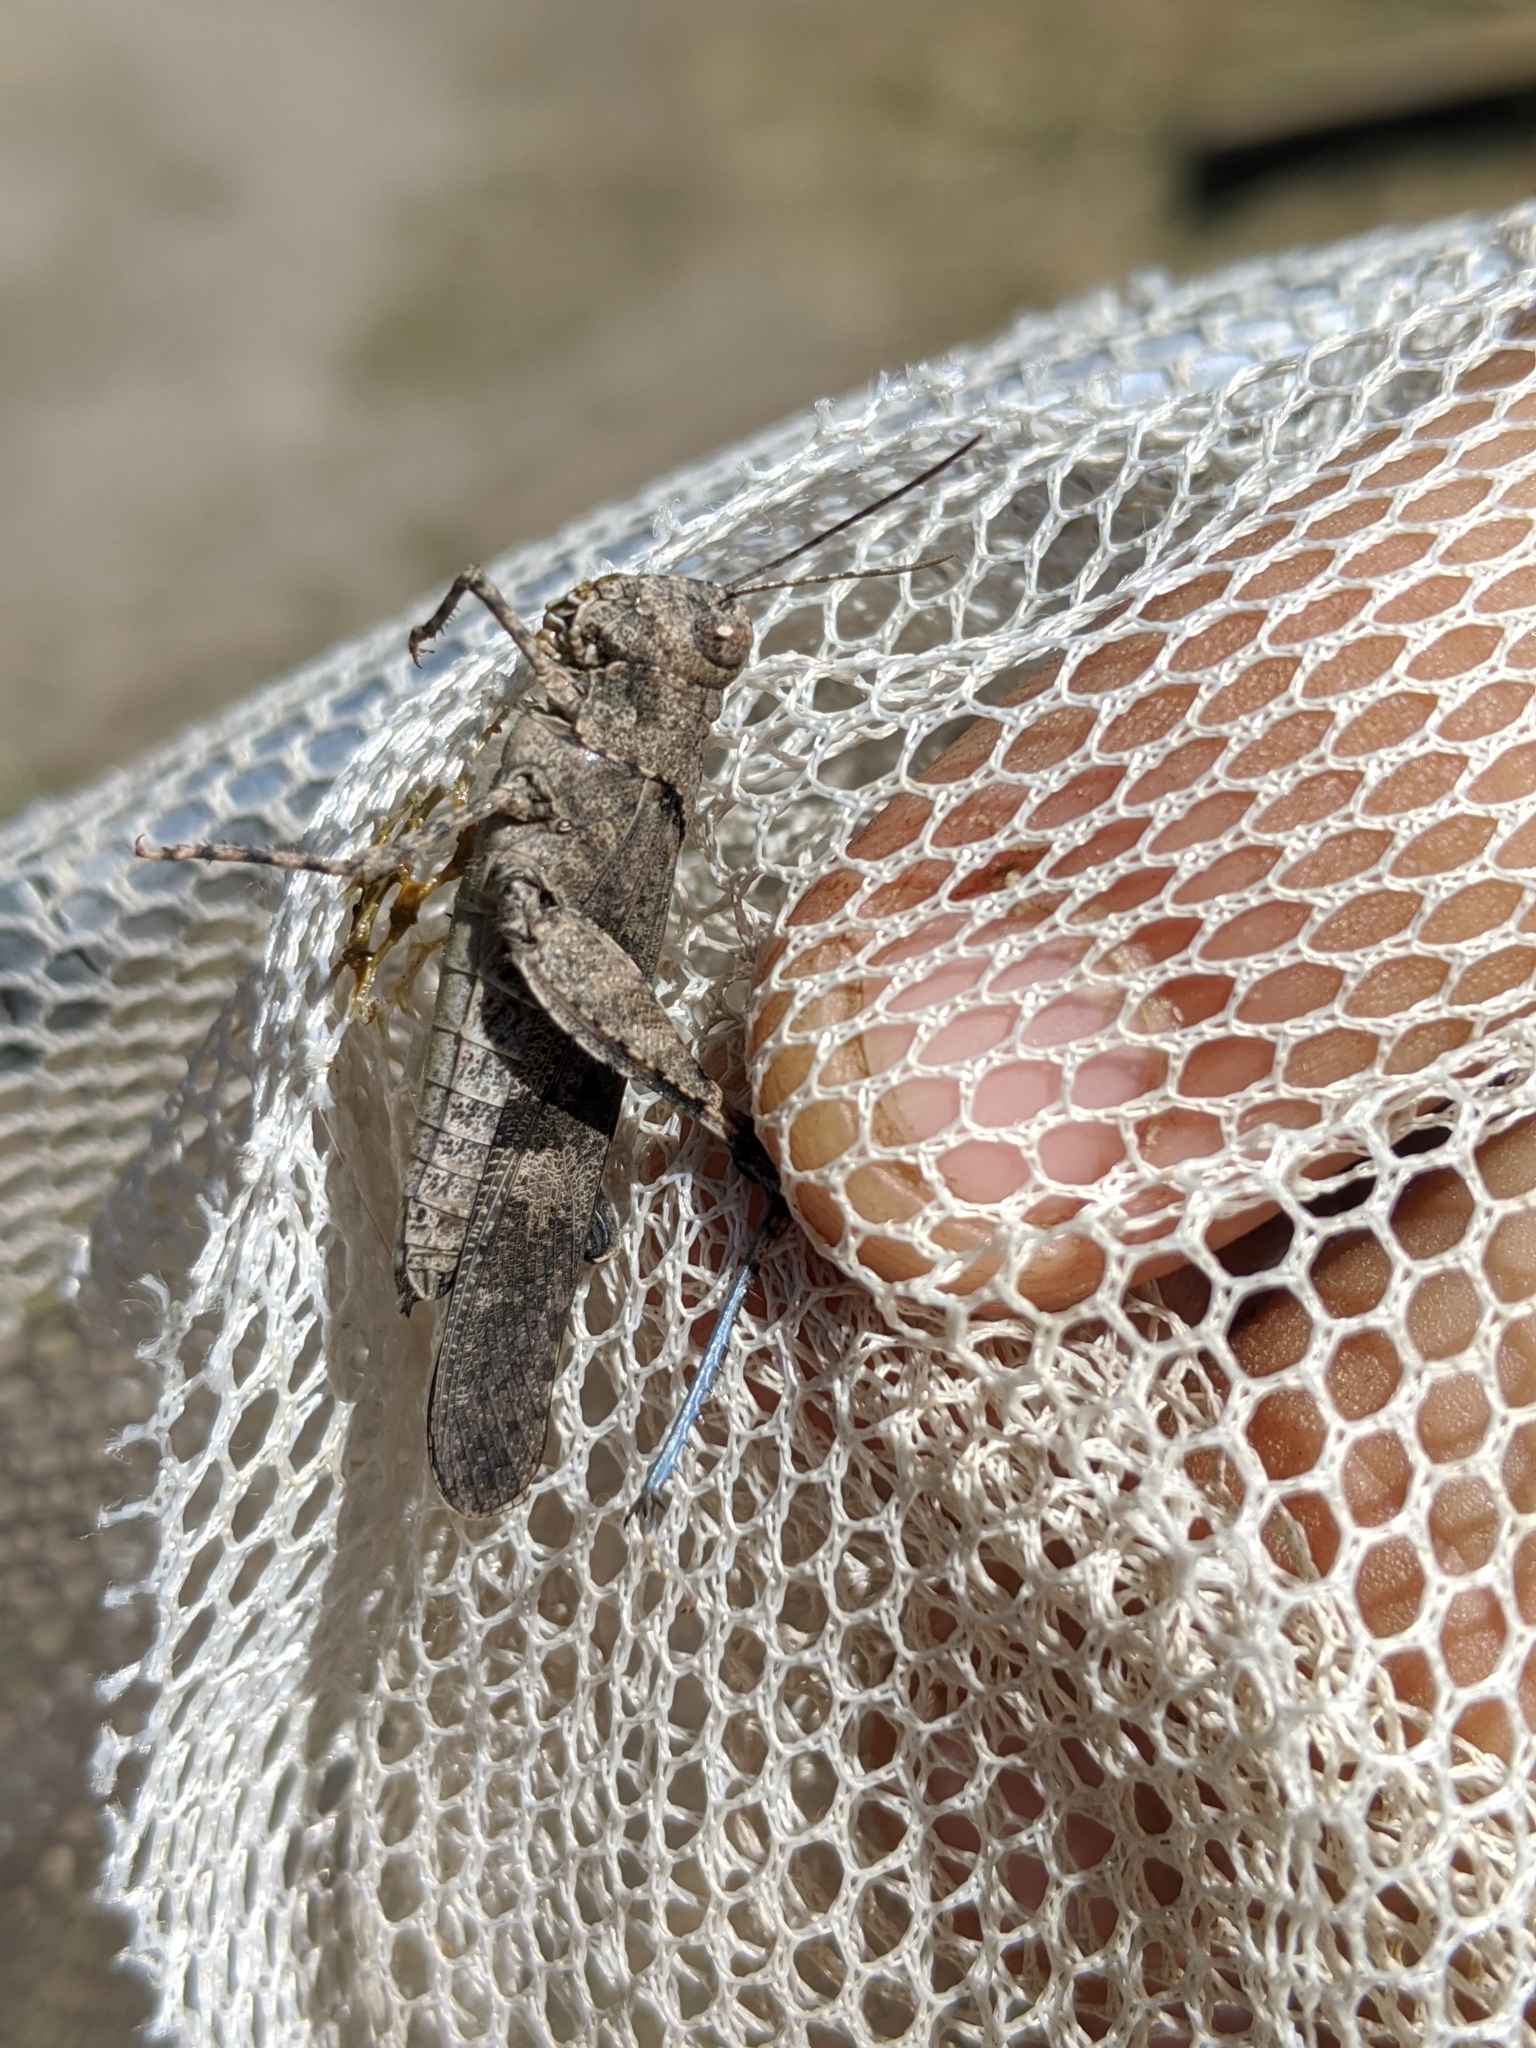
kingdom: Animalia
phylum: Arthropoda
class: Insecta
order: Orthoptera
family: Acrididae
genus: Trimerotropis
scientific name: Trimerotropis verruculata
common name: Crackling forest grasshopper
